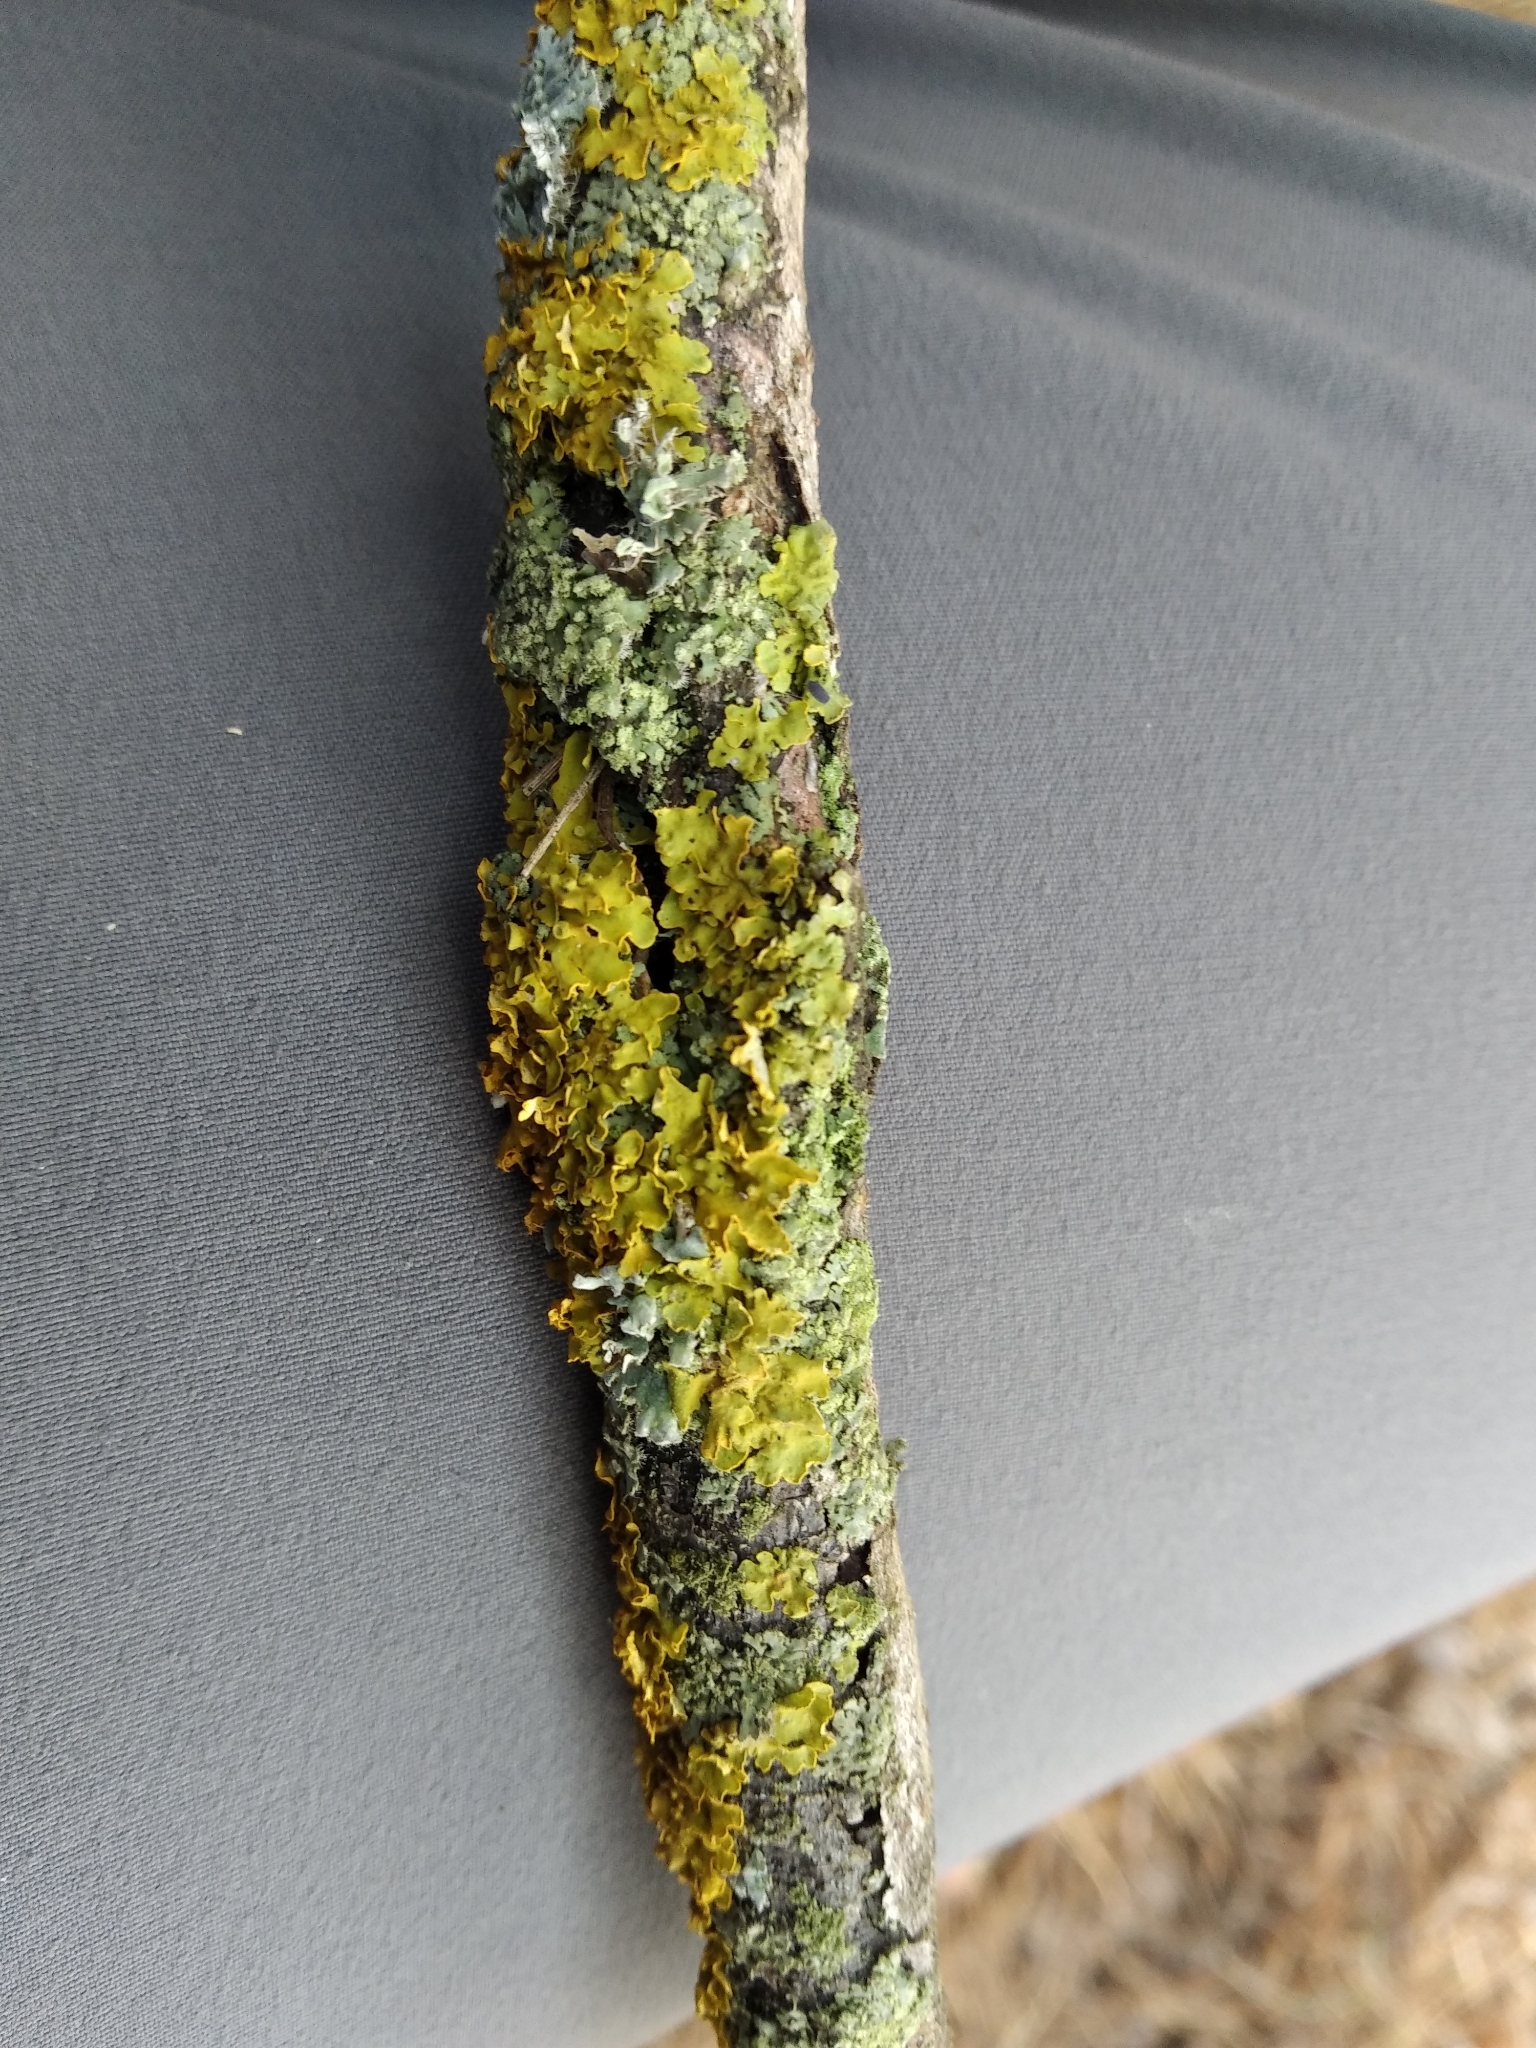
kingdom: Fungi
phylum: Ascomycota
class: Lecanoromycetes
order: Teloschistales
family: Teloschistaceae
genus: Xanthoria
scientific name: Xanthoria parietina
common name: Common orange lichen
